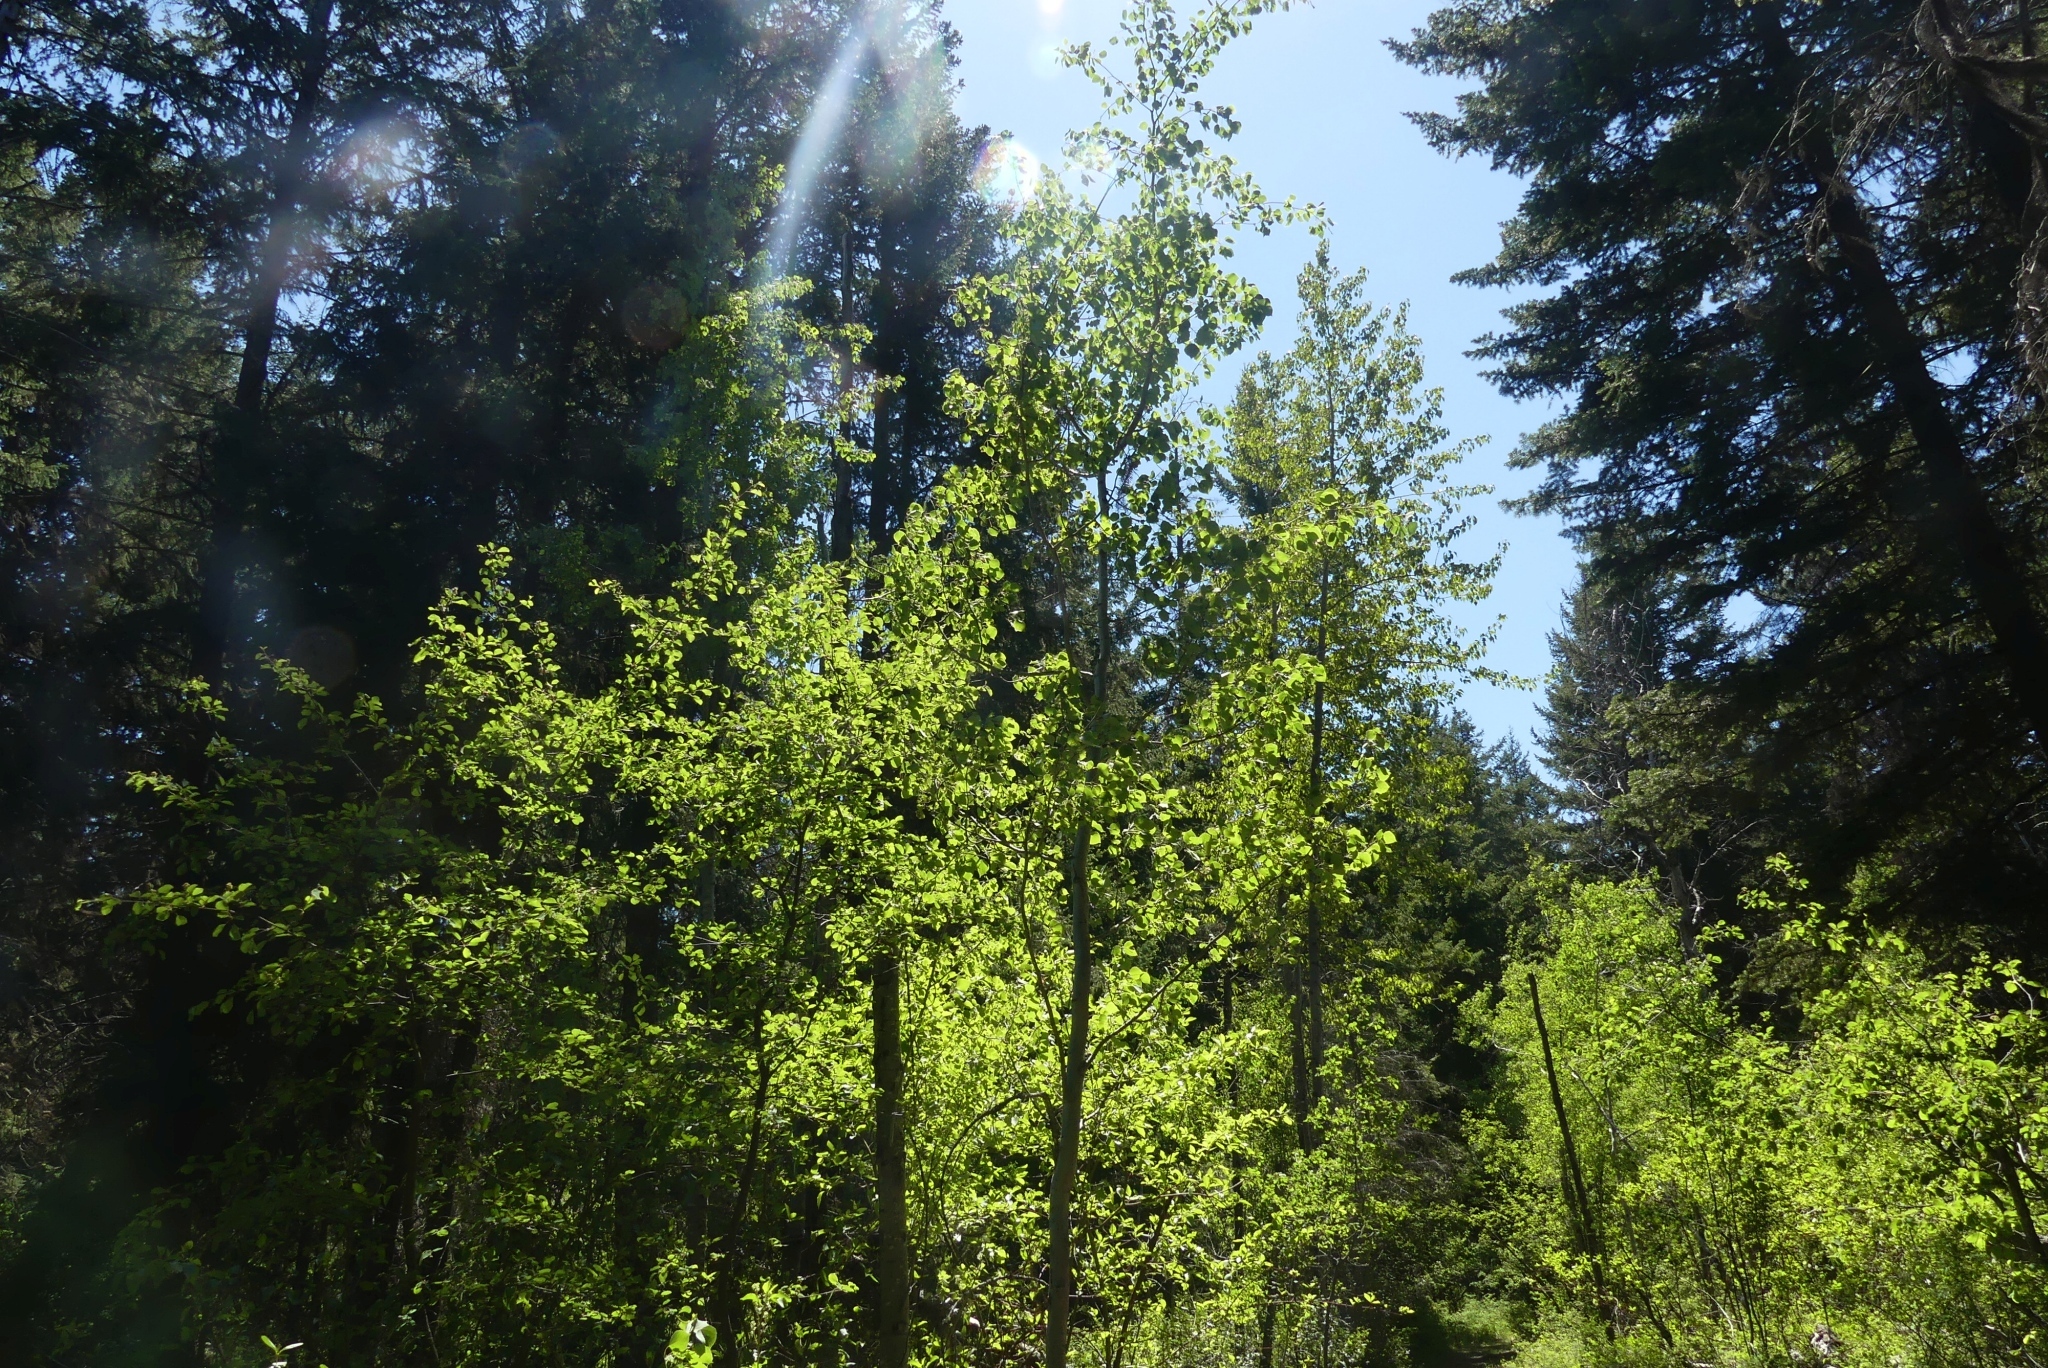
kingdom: Plantae
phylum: Tracheophyta
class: Magnoliopsida
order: Malpighiales
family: Salicaceae
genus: Populus
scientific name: Populus tremuloides
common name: Quaking aspen
